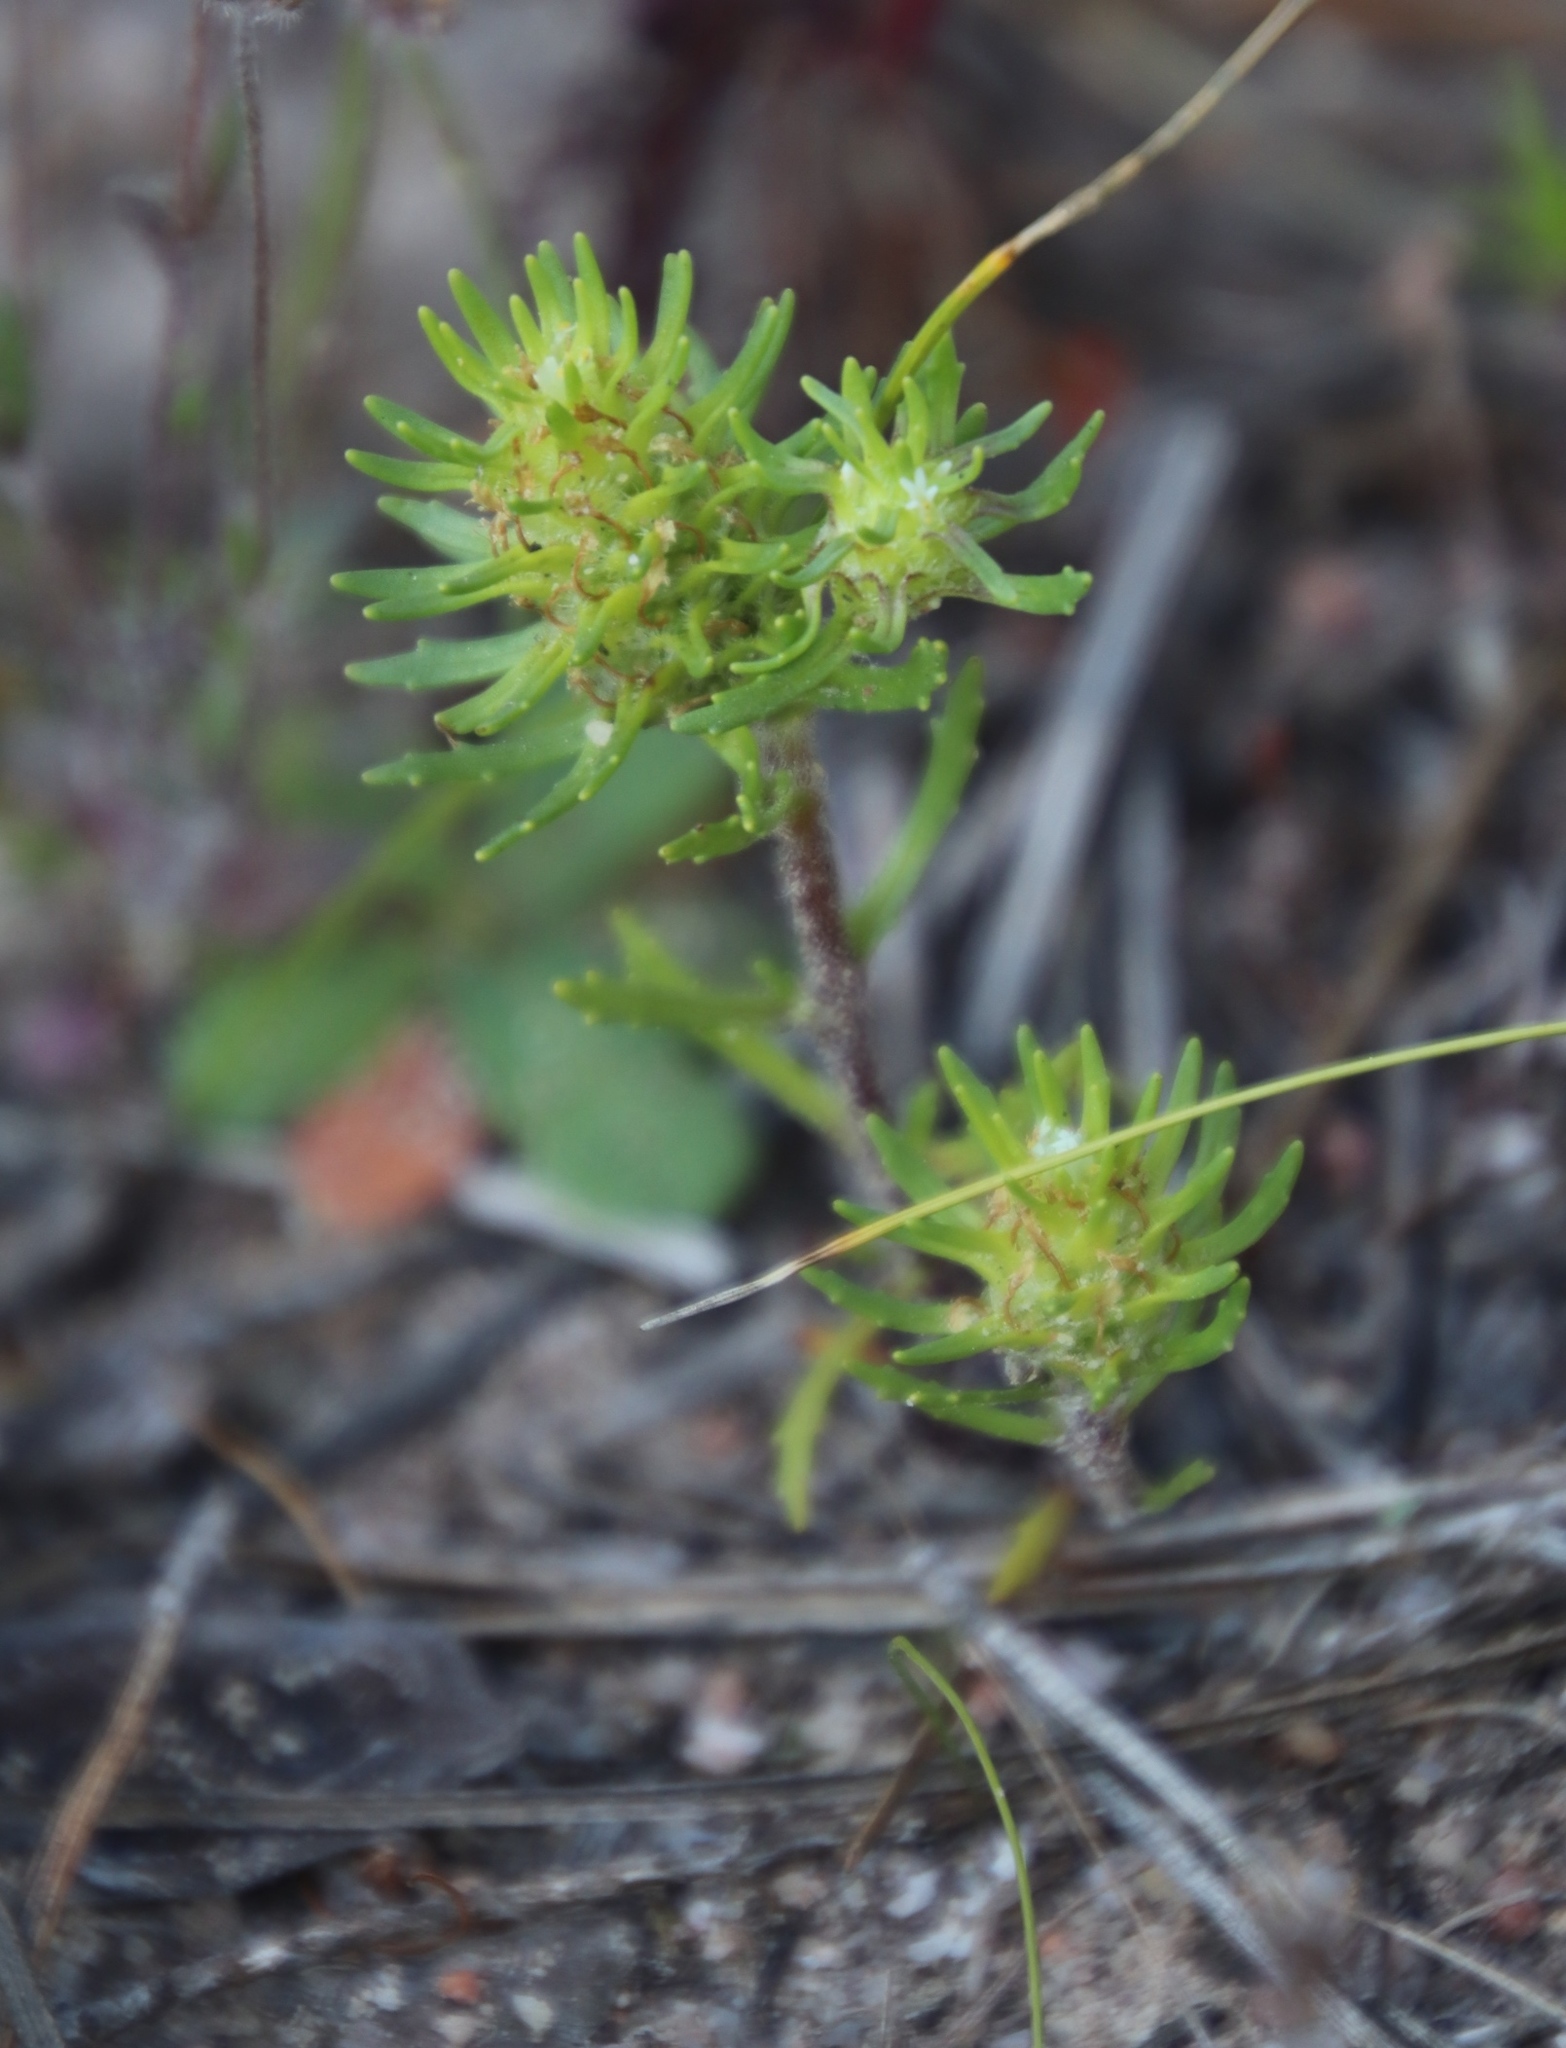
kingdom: Plantae
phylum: Tracheophyta
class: Magnoliopsida
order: Lamiales
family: Scrophulariaceae
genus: Dischisma
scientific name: Dischisma capitatum
